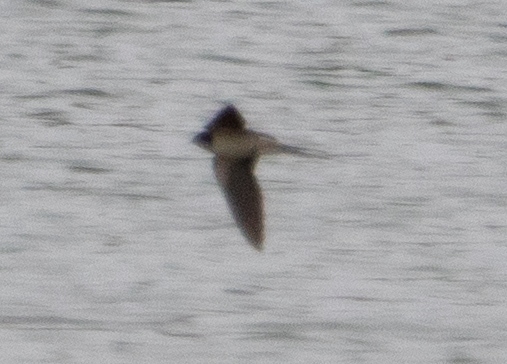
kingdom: Animalia
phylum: Chordata
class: Aves
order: Passeriformes
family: Hirundinidae
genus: Hirundo
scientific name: Hirundo rustica
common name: Barn swallow
